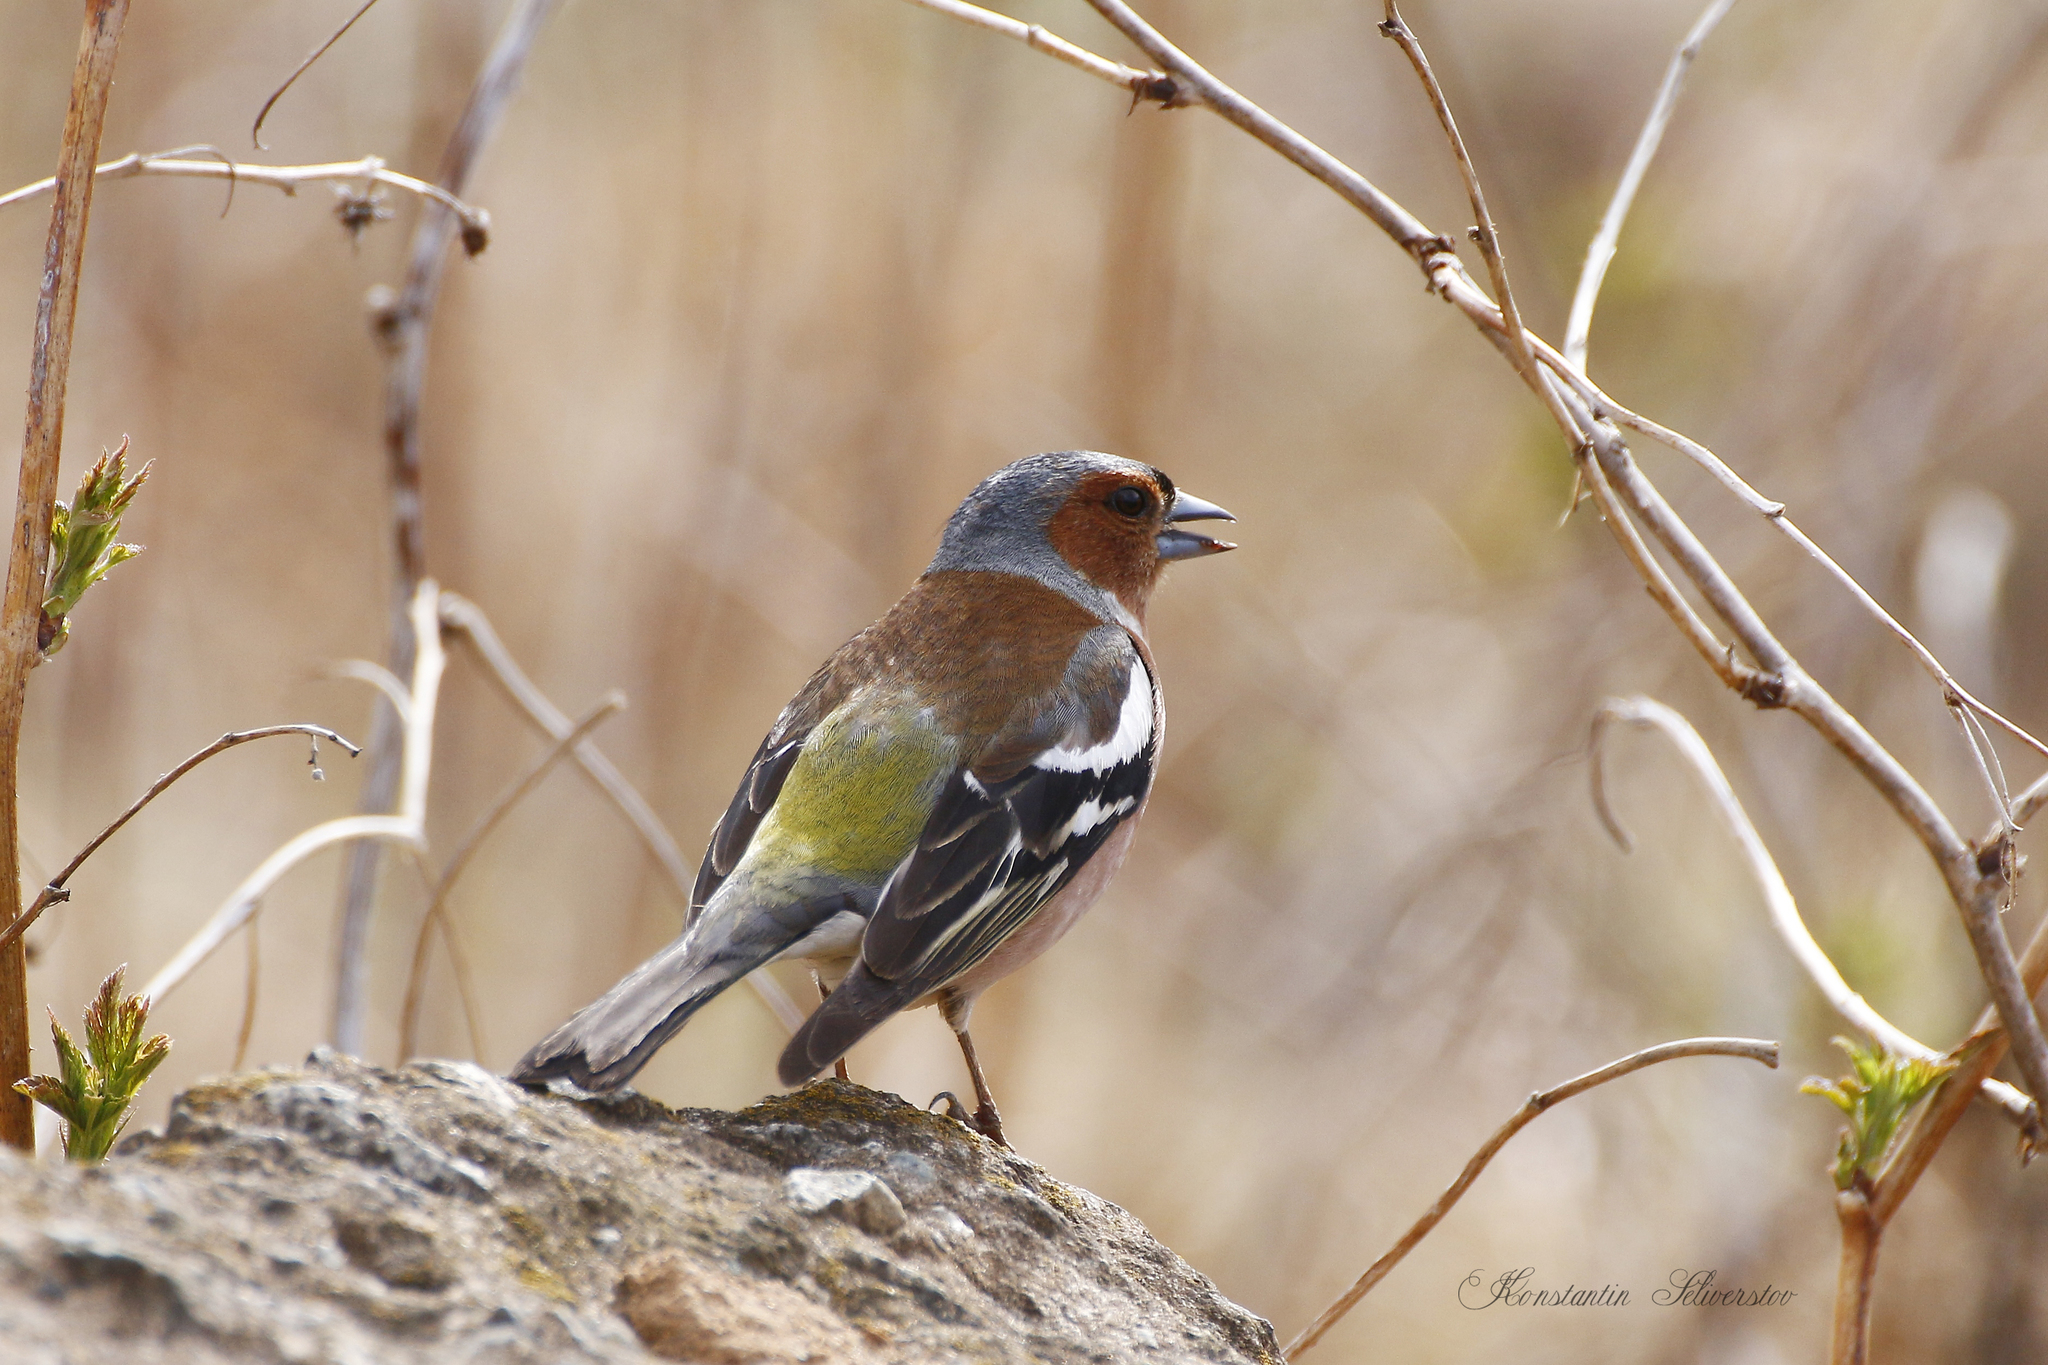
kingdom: Animalia
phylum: Chordata
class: Aves
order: Passeriformes
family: Fringillidae
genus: Fringilla
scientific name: Fringilla coelebs
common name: Common chaffinch
